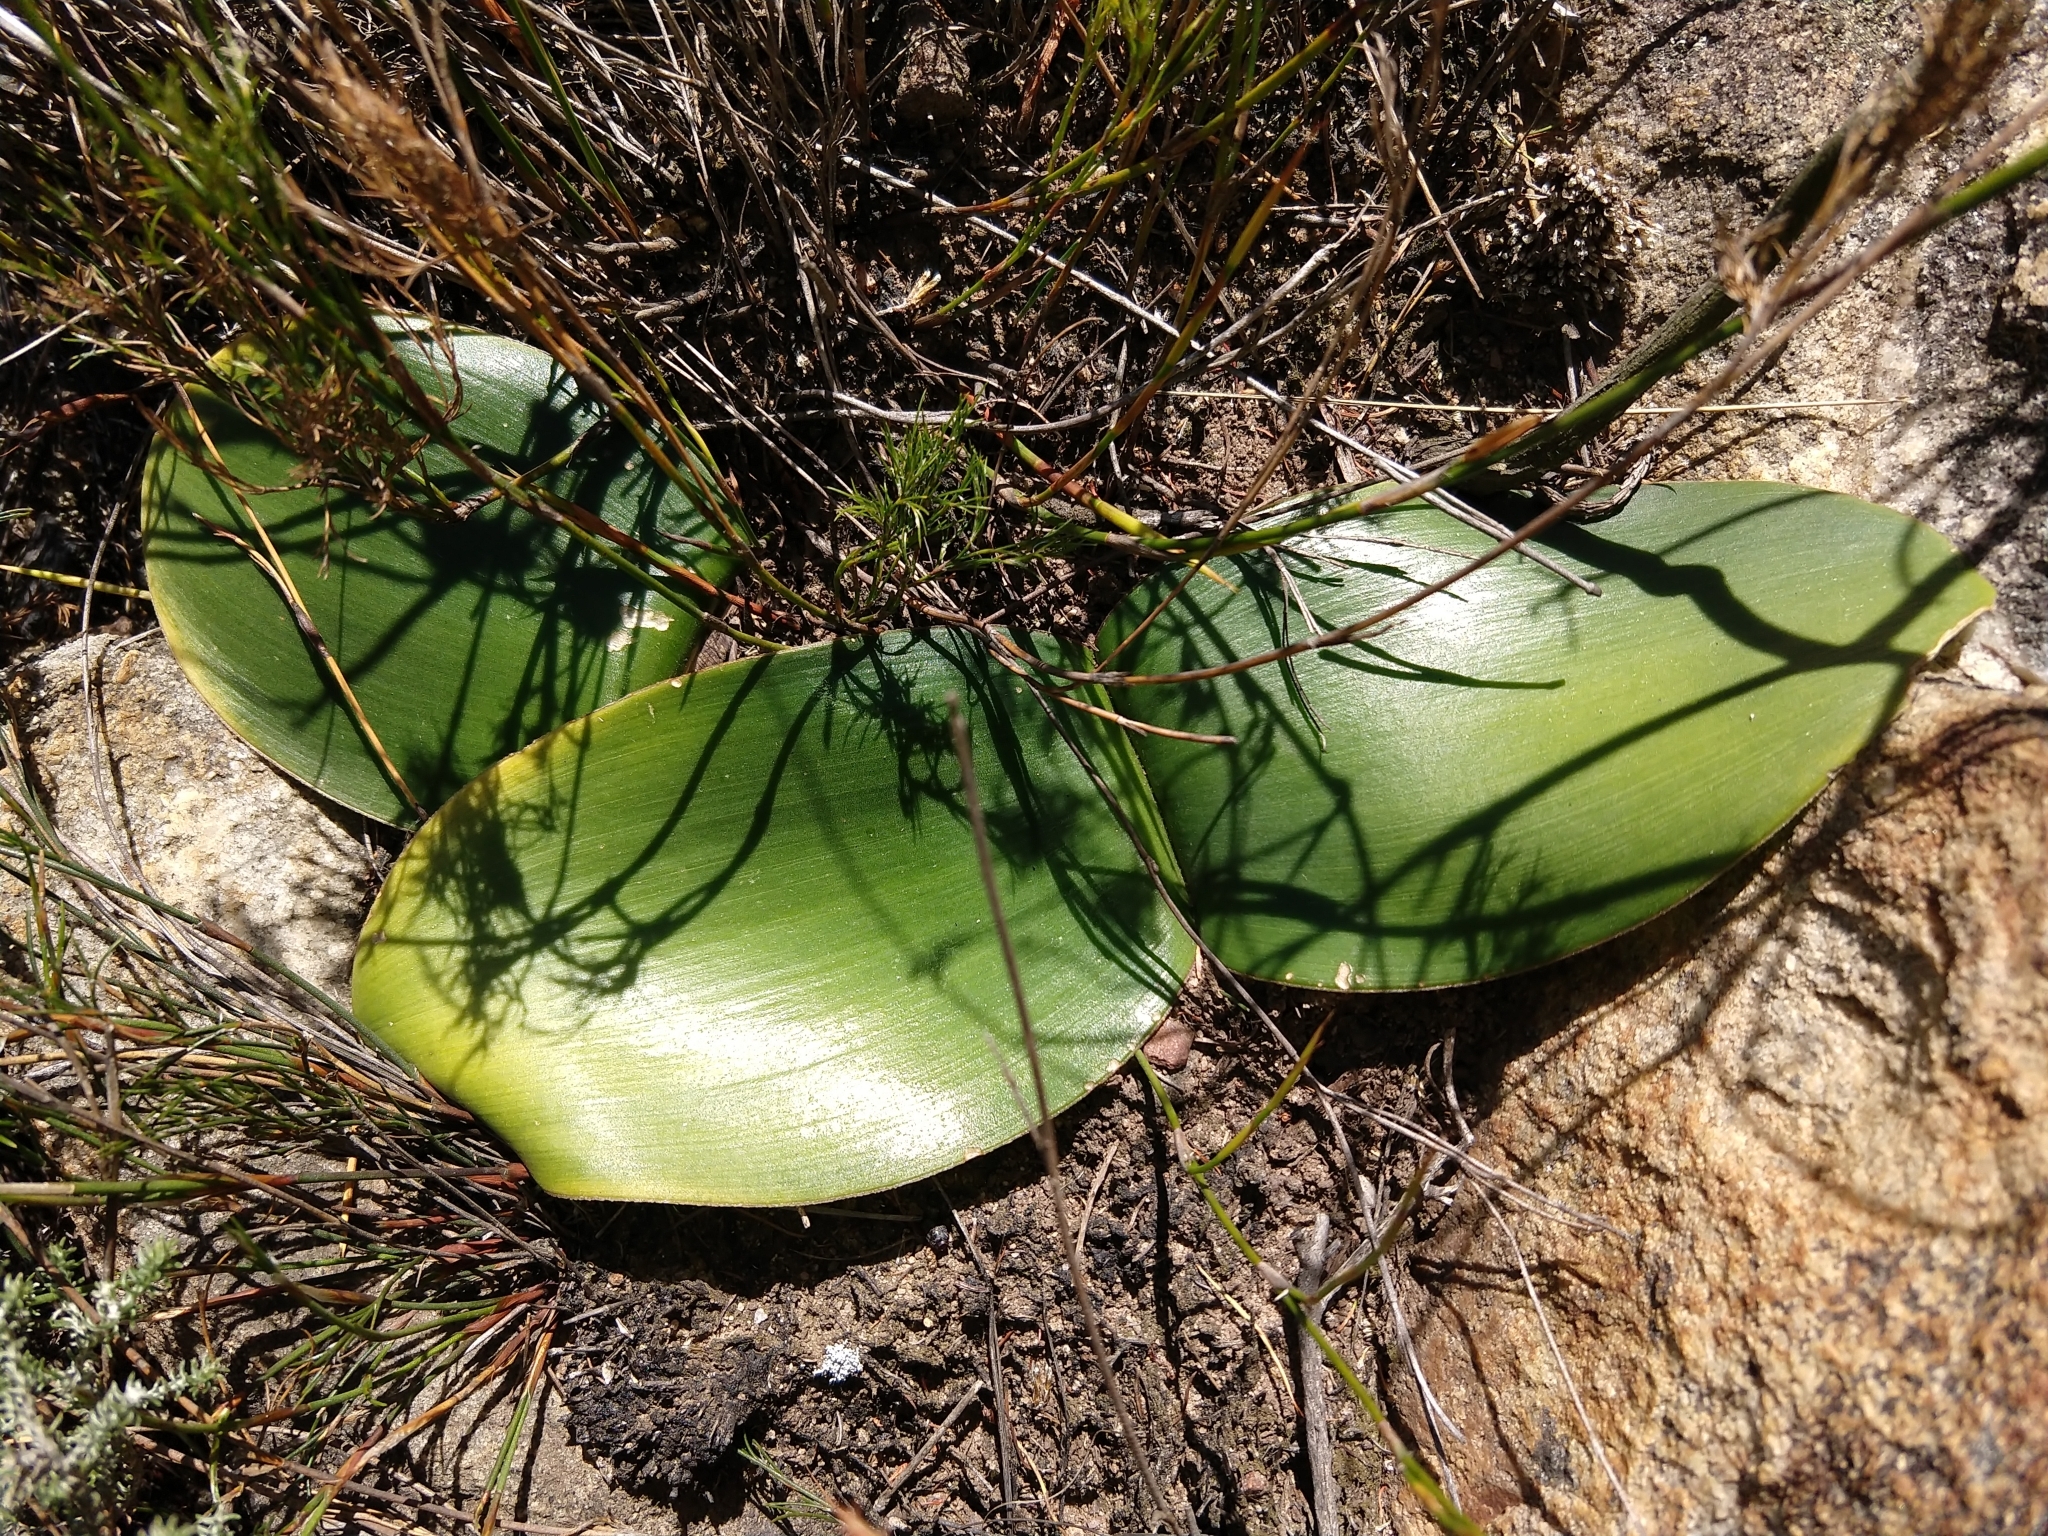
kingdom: Plantae
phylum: Tracheophyta
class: Liliopsida
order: Asparagales
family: Amaryllidaceae
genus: Haemanthus
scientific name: Haemanthus sanguineus
